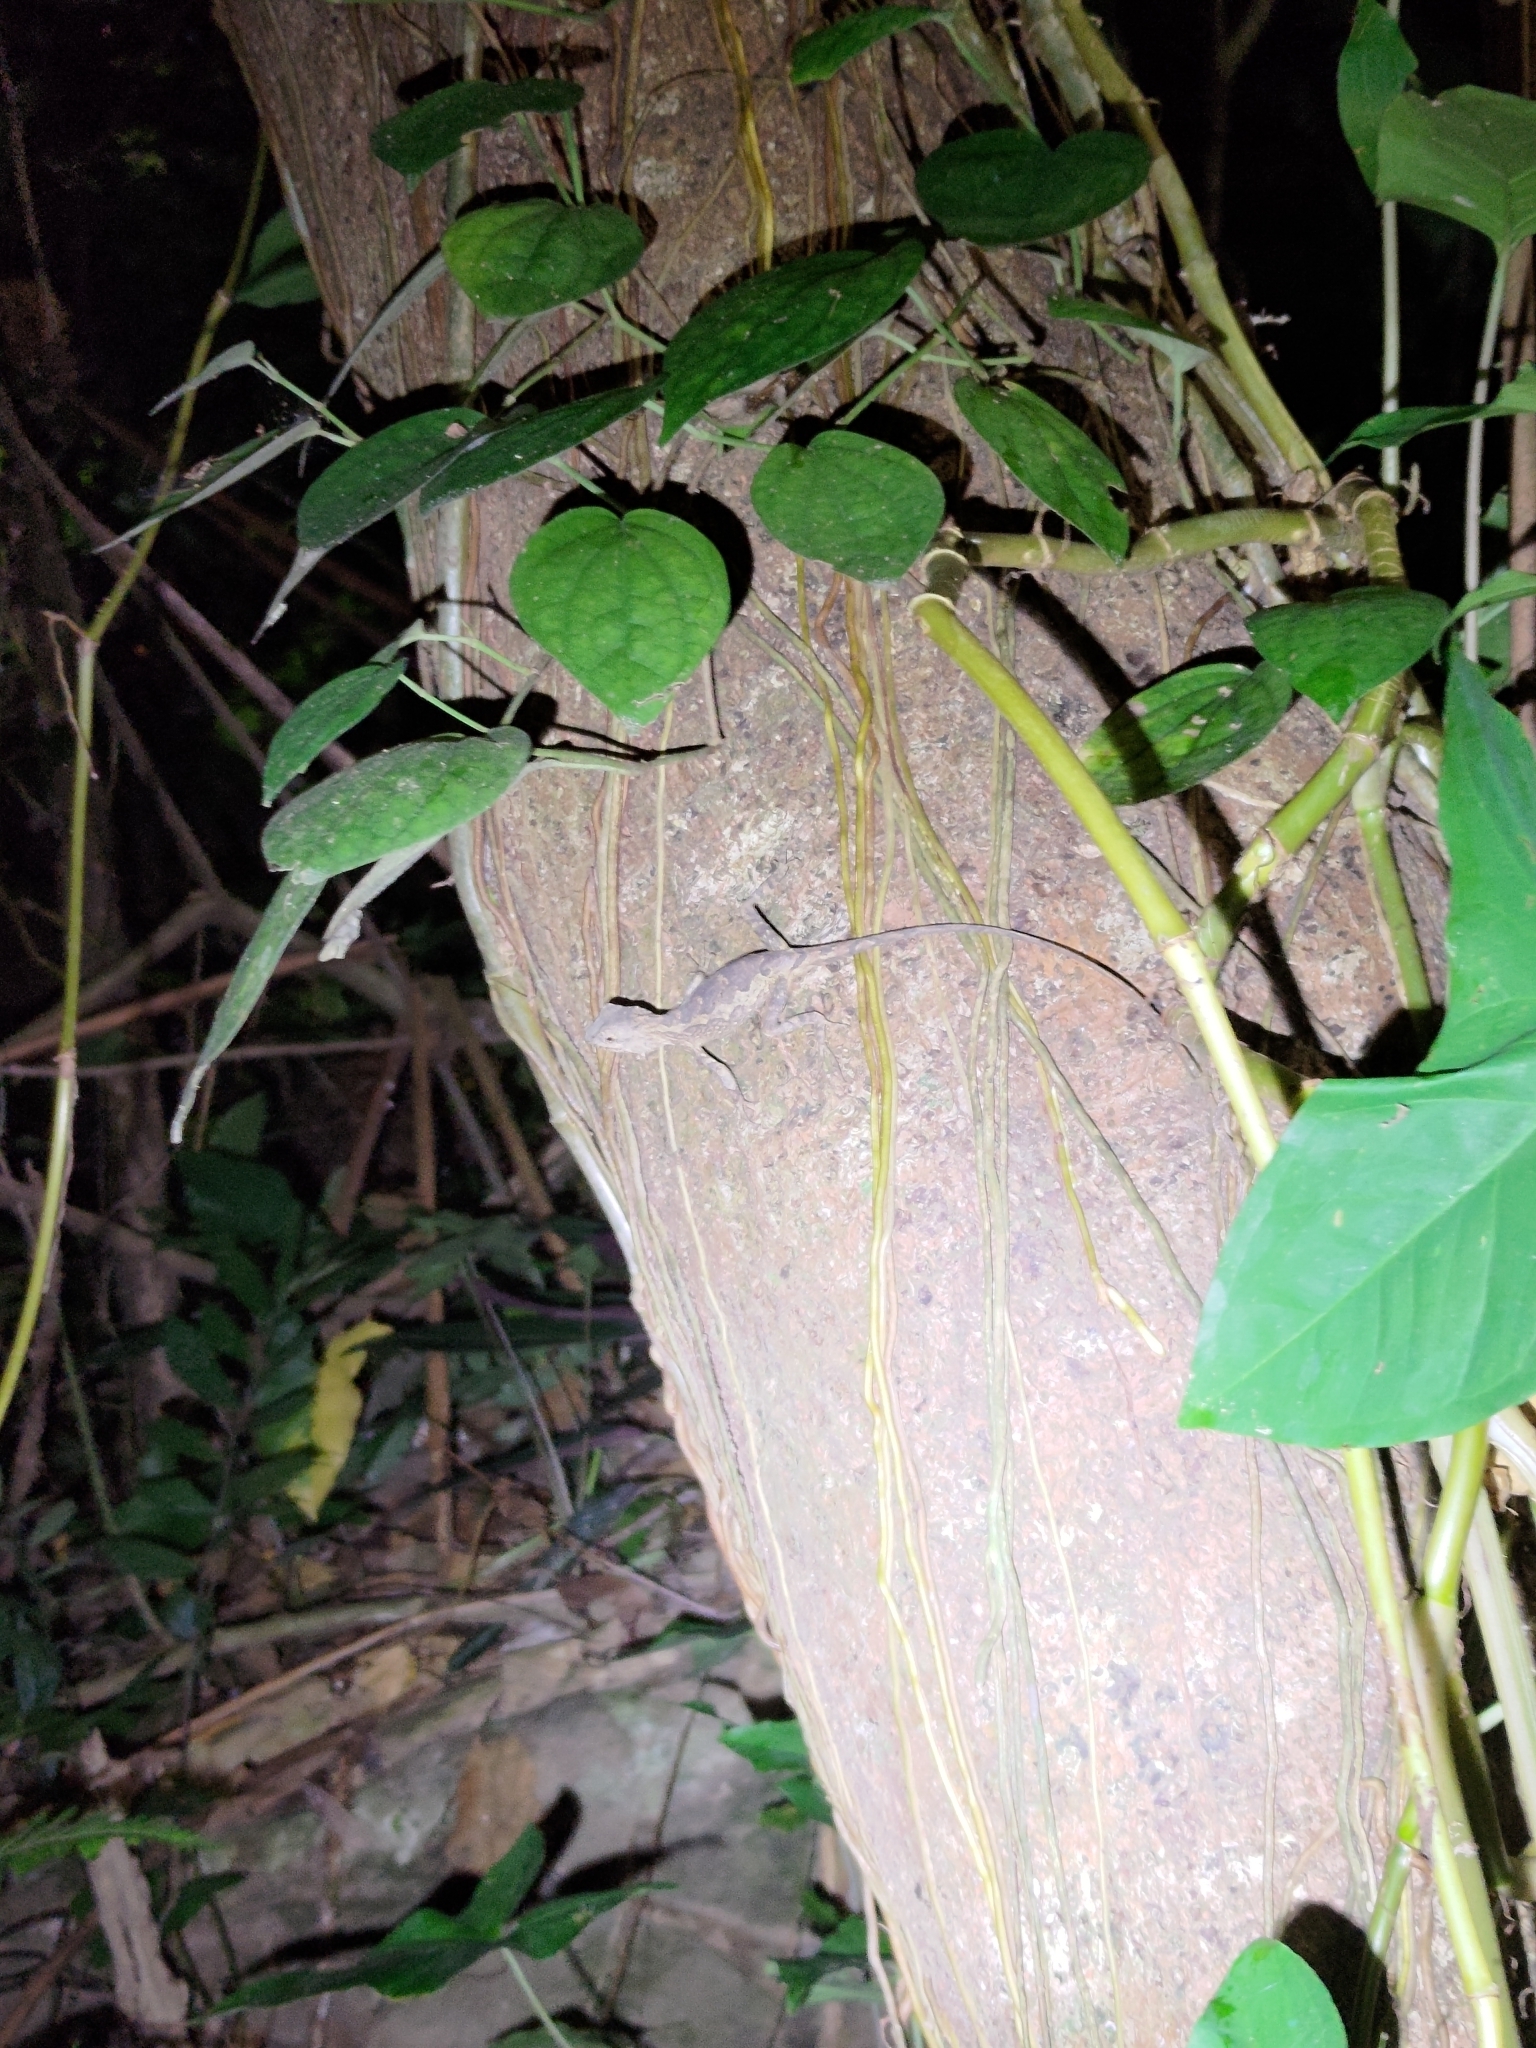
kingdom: Animalia
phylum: Chordata
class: Squamata
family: Agamidae
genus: Diploderma
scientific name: Diploderma swinhonis
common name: Taiwan japalure
